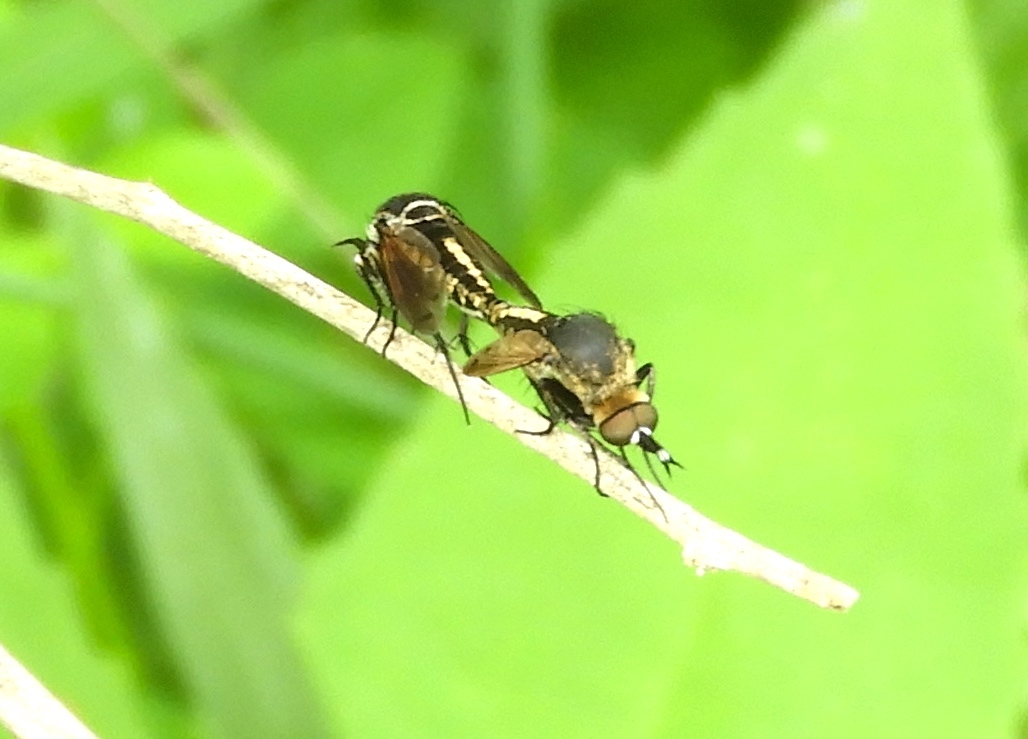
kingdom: Animalia
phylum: Arthropoda
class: Insecta
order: Diptera
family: Bombyliidae
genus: Toxophora
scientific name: Toxophora azteca
